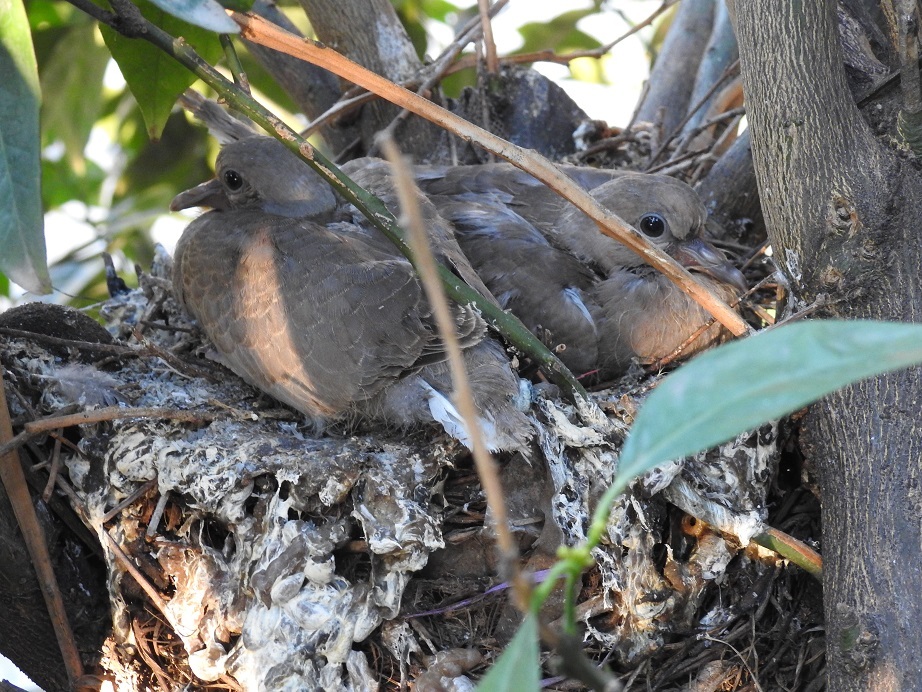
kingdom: Animalia
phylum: Chordata
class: Aves
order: Columbiformes
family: Columbidae
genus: Streptopelia
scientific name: Streptopelia decaocto
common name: Eurasian collared dove
